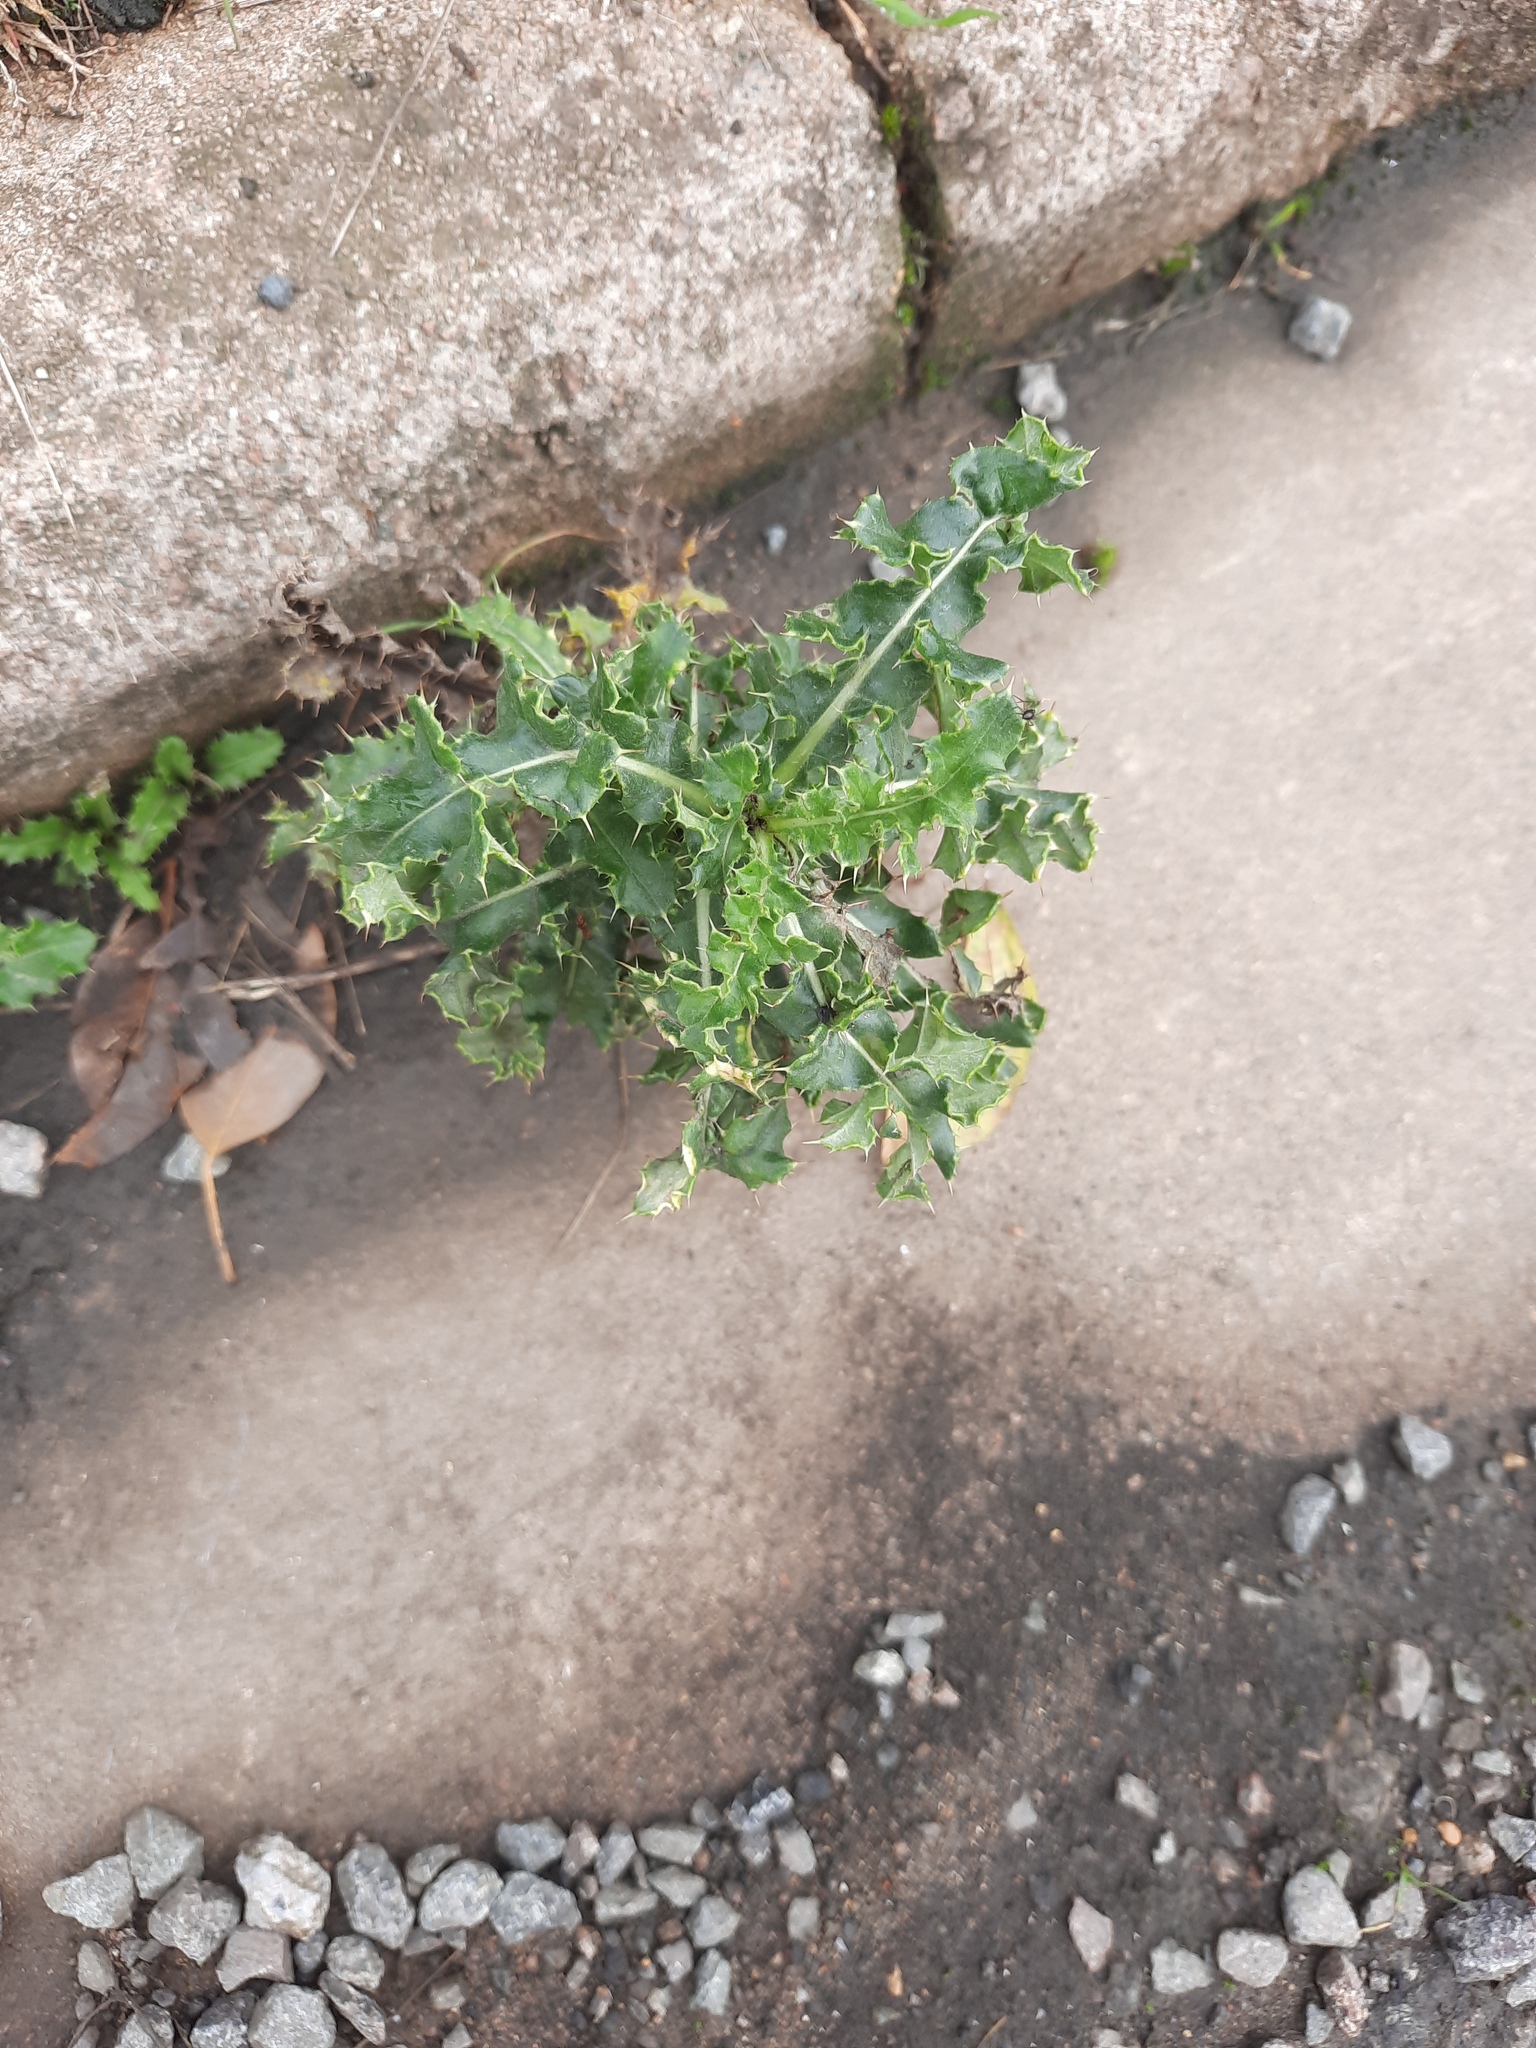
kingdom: Plantae
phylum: Tracheophyta
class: Magnoliopsida
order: Asterales
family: Asteraceae
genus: Cirsium
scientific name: Cirsium arvense
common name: Creeping thistle
